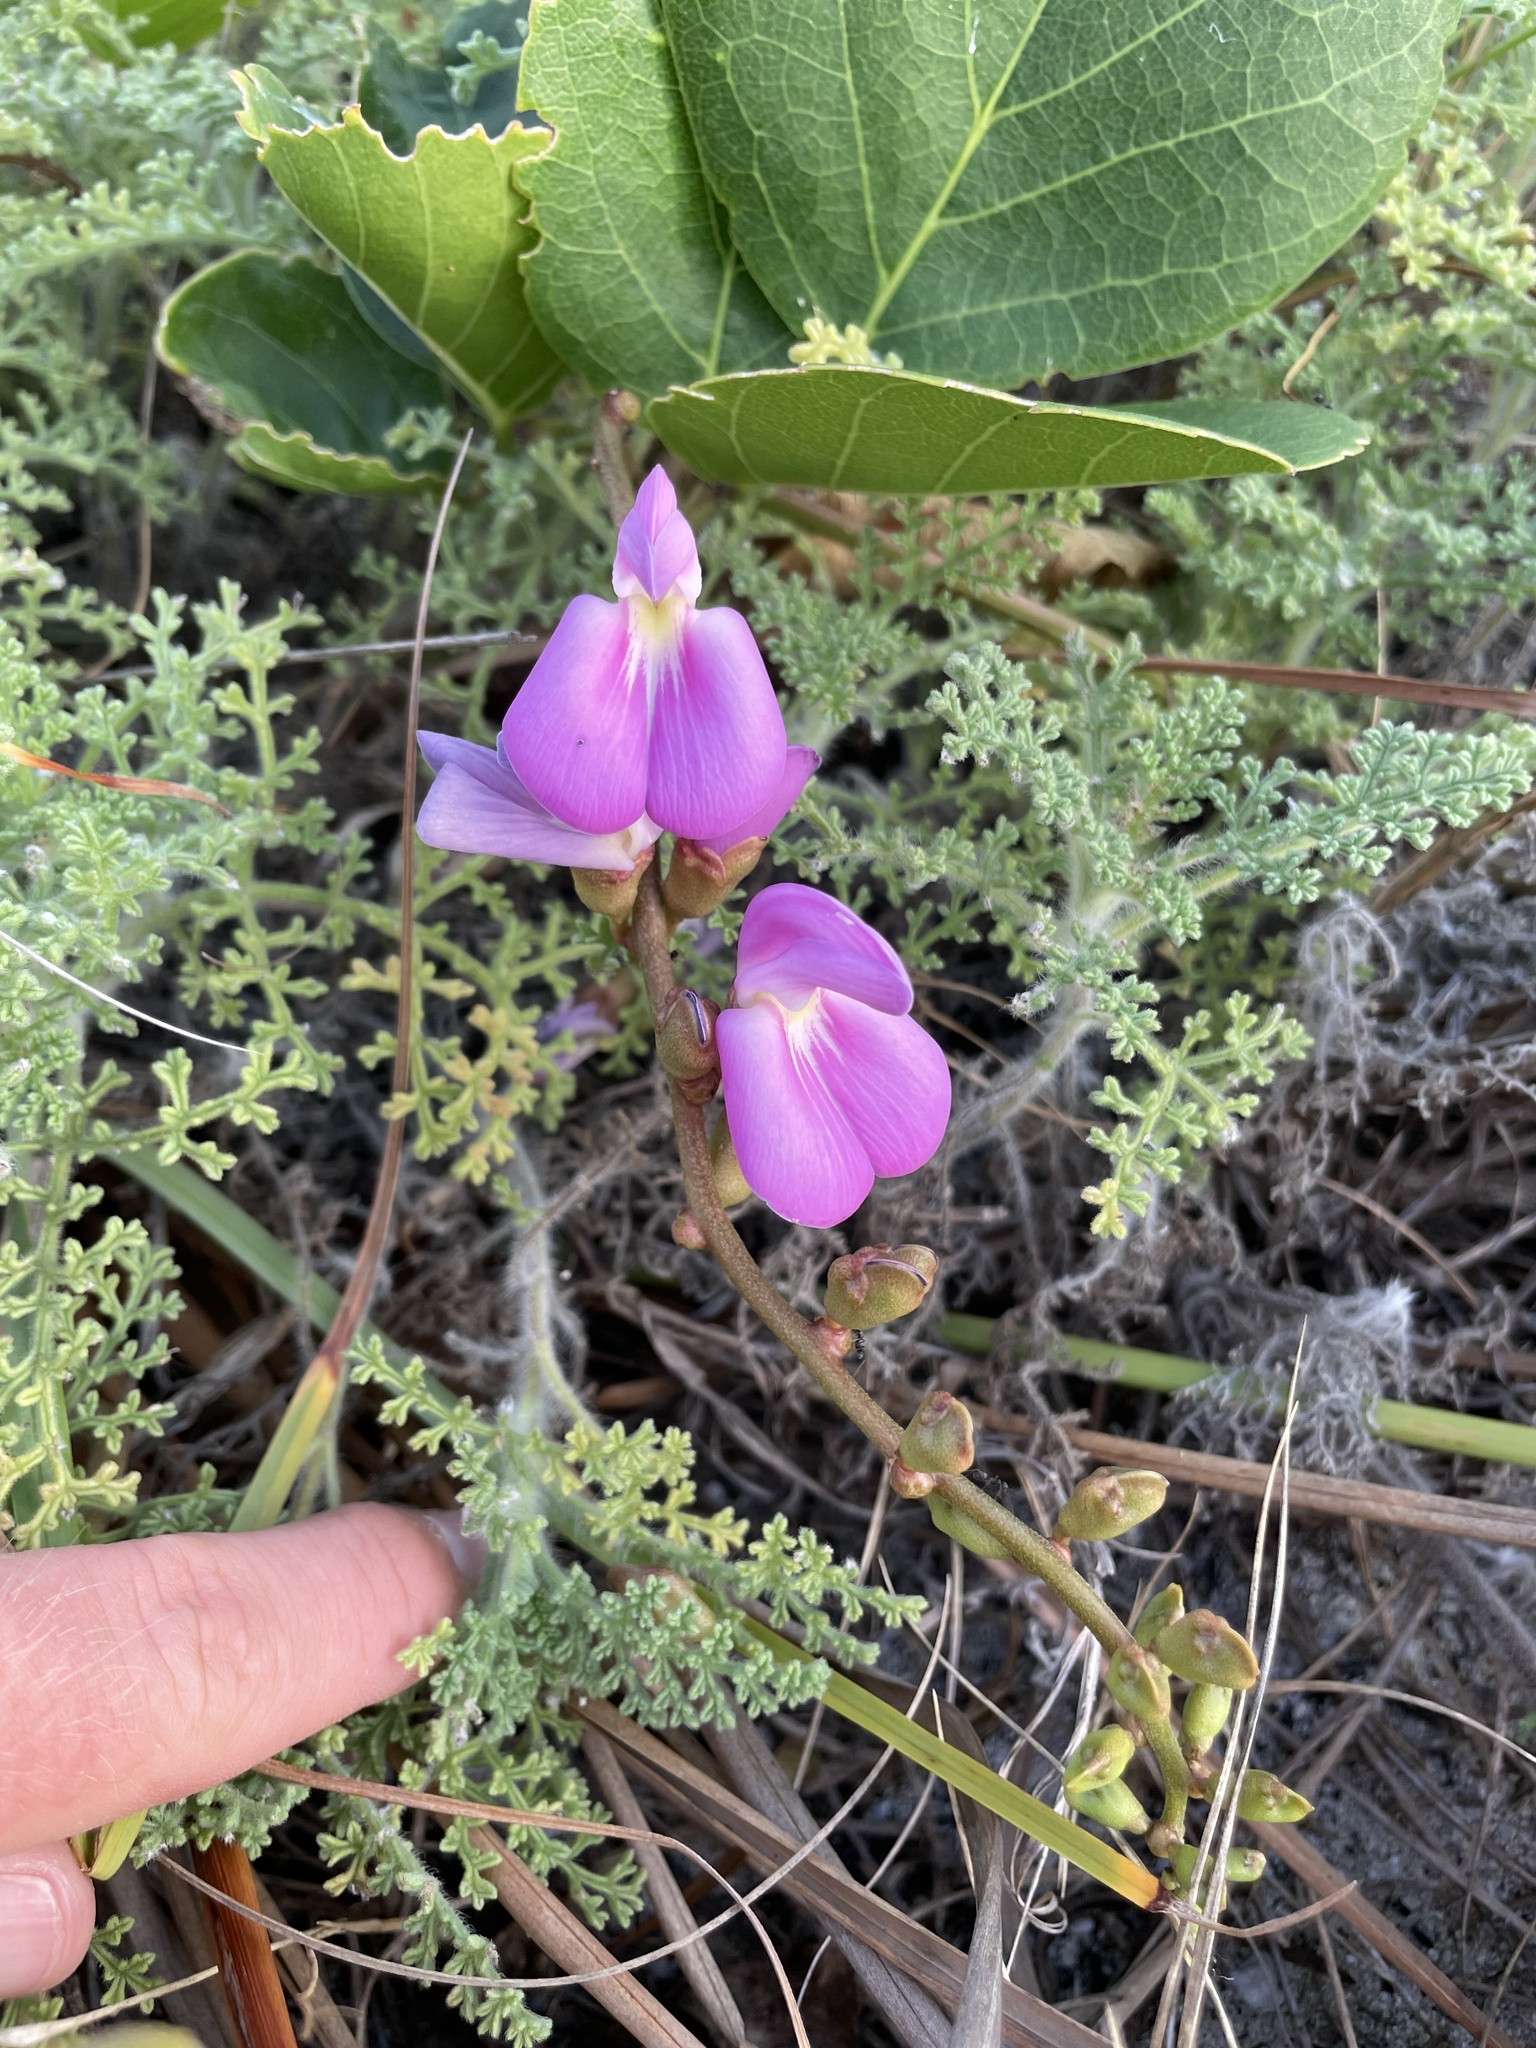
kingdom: Plantae
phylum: Tracheophyta
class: Magnoliopsida
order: Fabales
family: Fabaceae
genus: Canavalia
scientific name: Canavalia rosea
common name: Beach-bean
